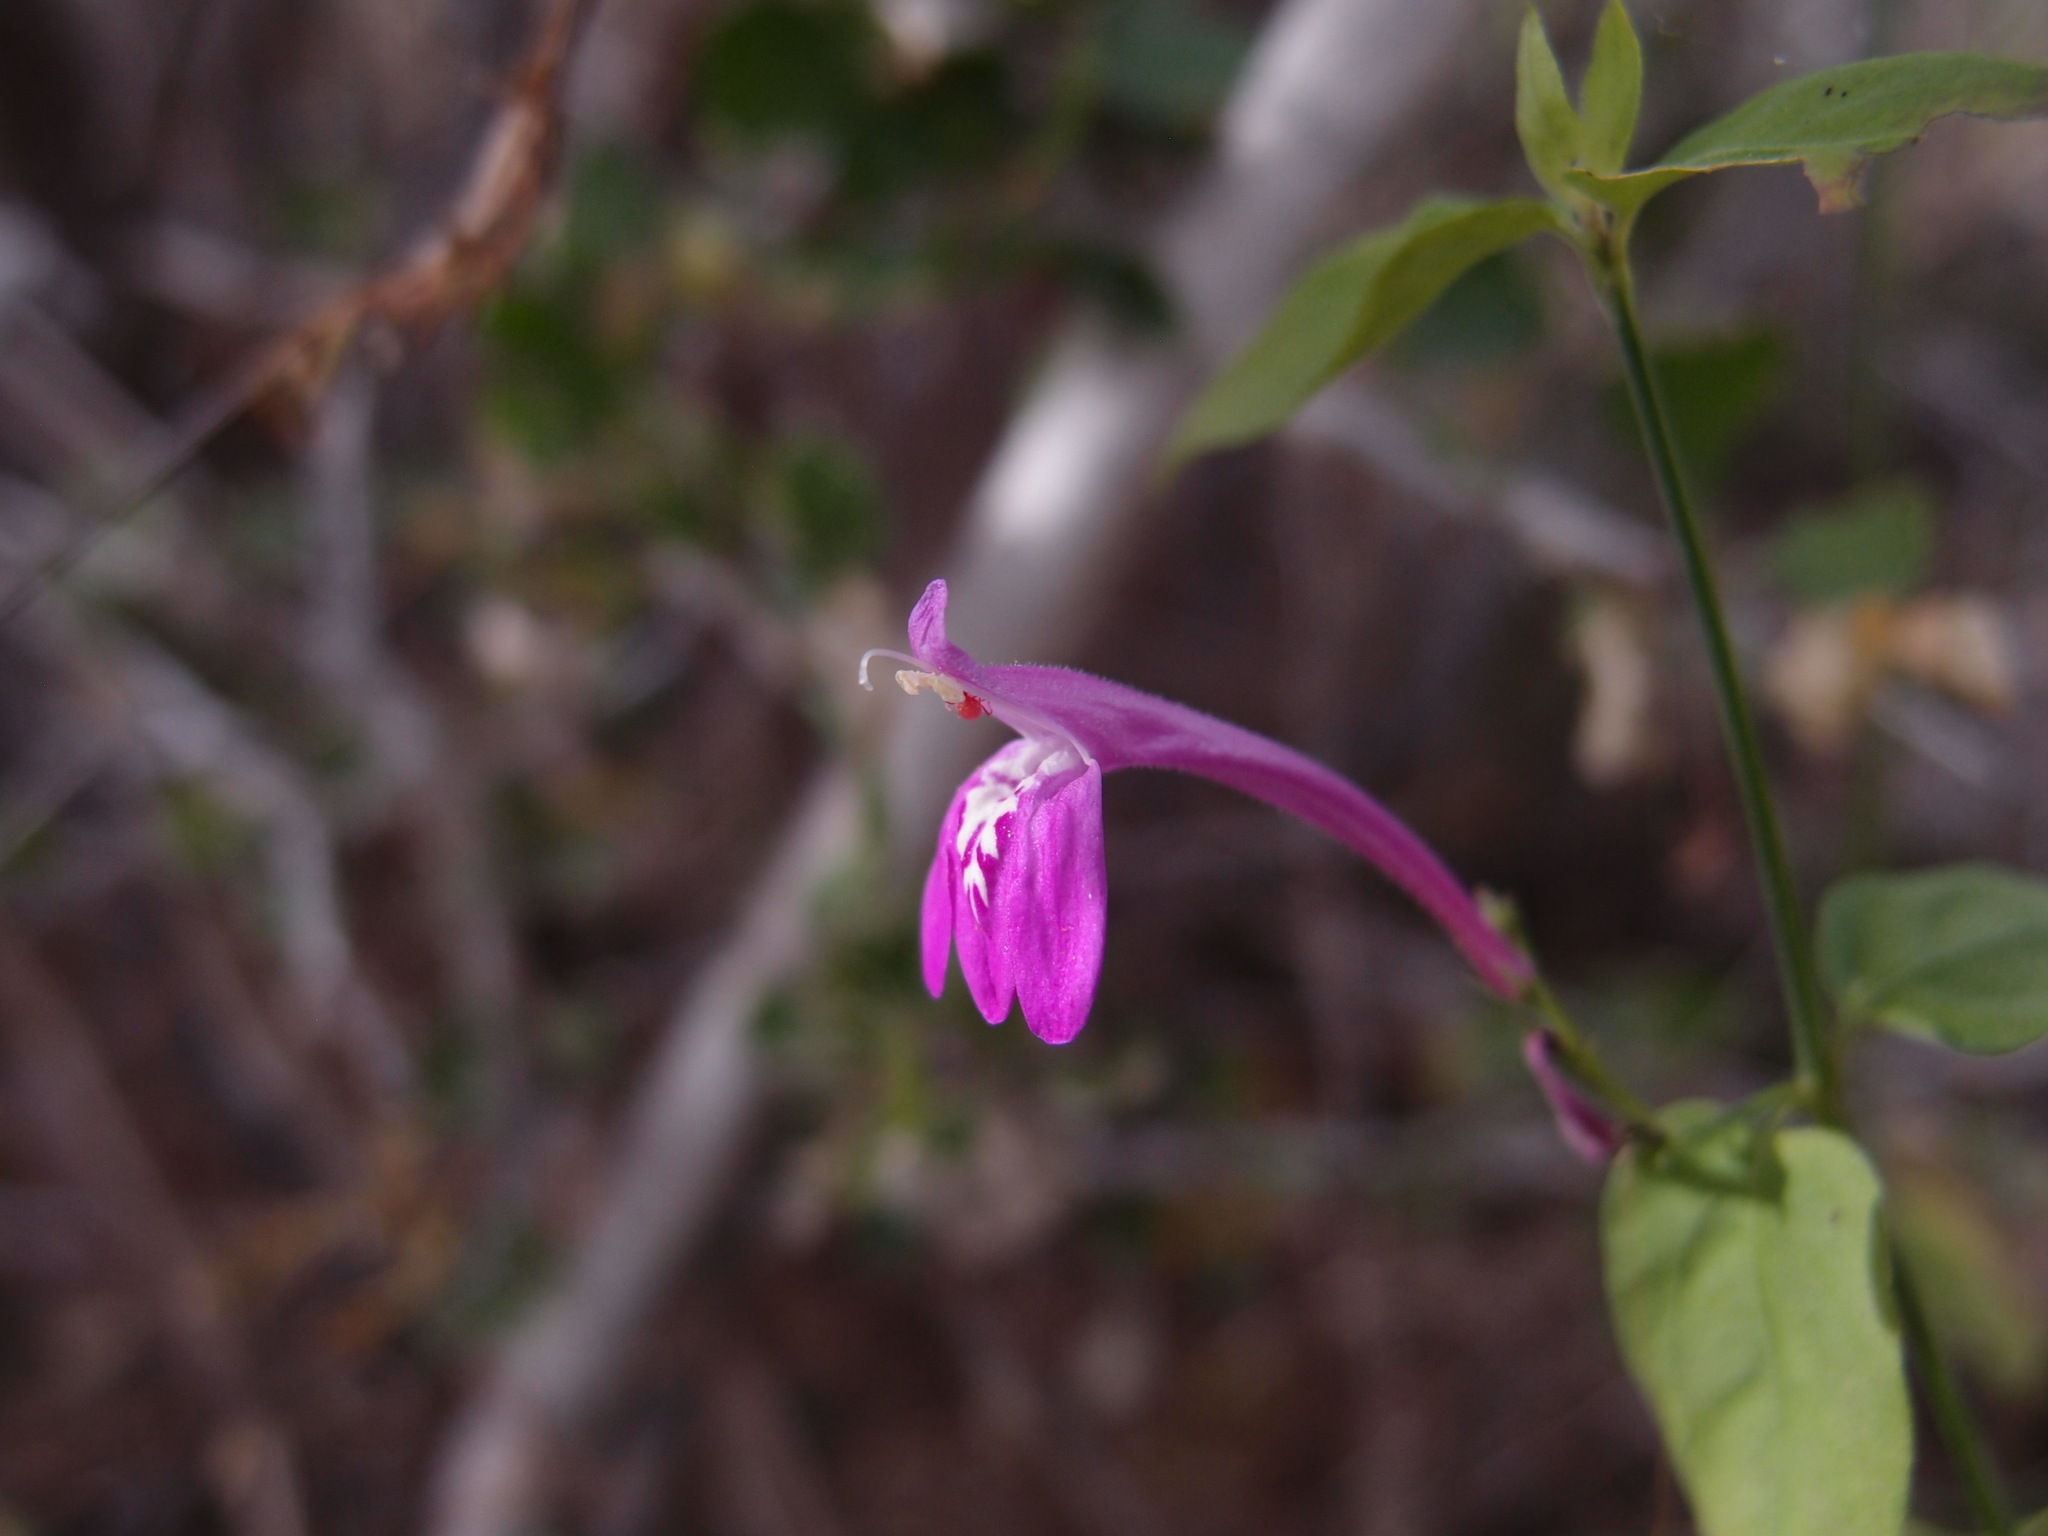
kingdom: Plantae
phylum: Tracheophyta
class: Magnoliopsida
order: Lamiales
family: Acanthaceae
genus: Justicia
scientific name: Justicia sonorae
